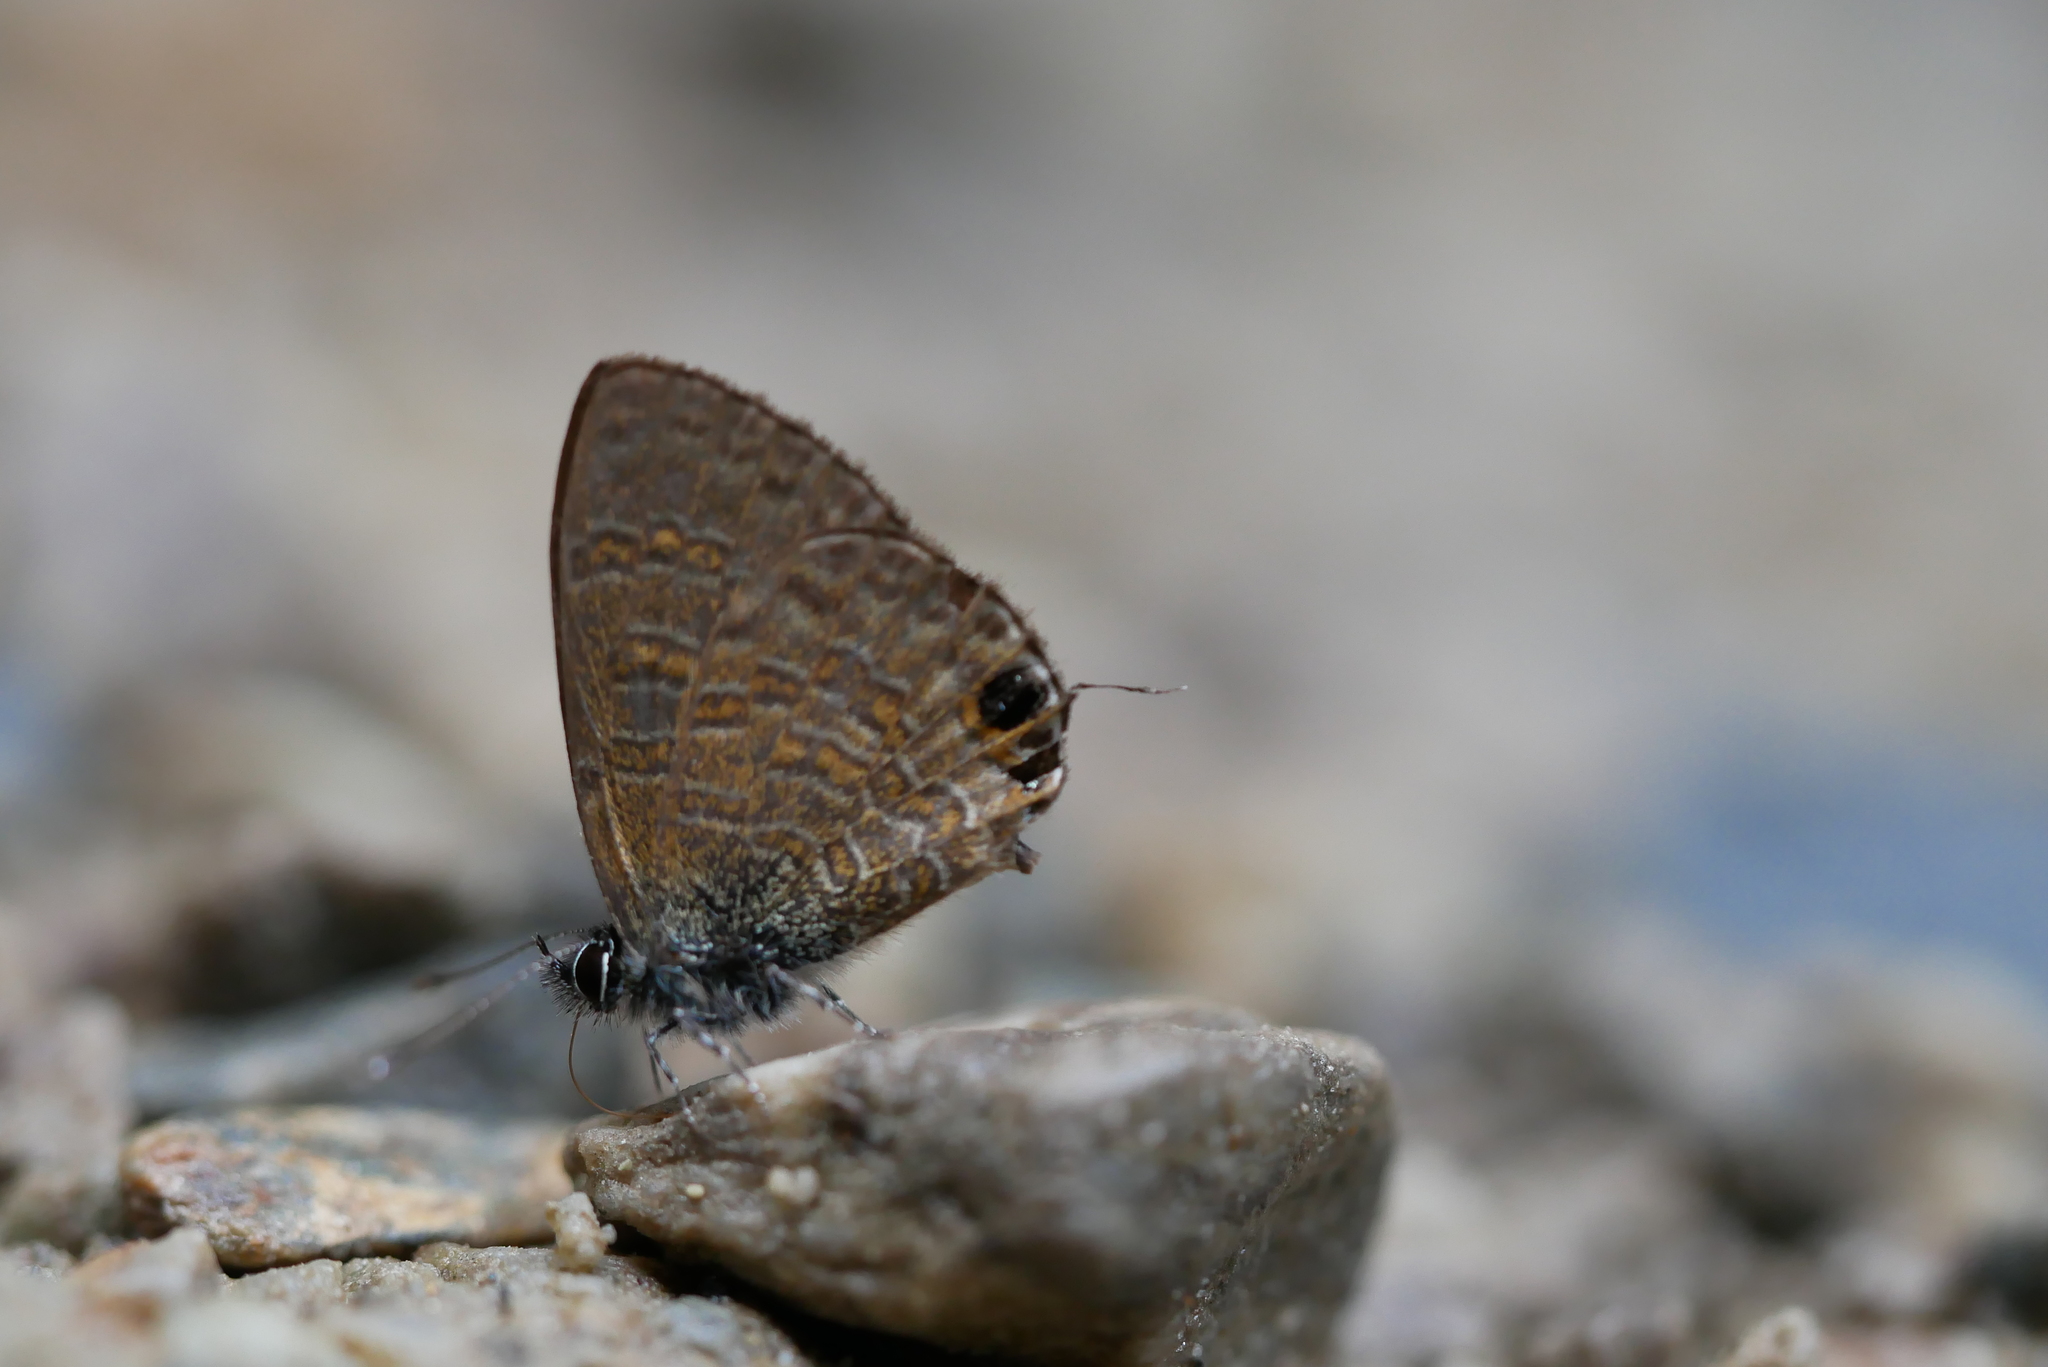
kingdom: Animalia
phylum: Arthropoda
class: Insecta
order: Lepidoptera
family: Lycaenidae
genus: Prosotas
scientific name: Prosotas nora
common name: Common line blue
